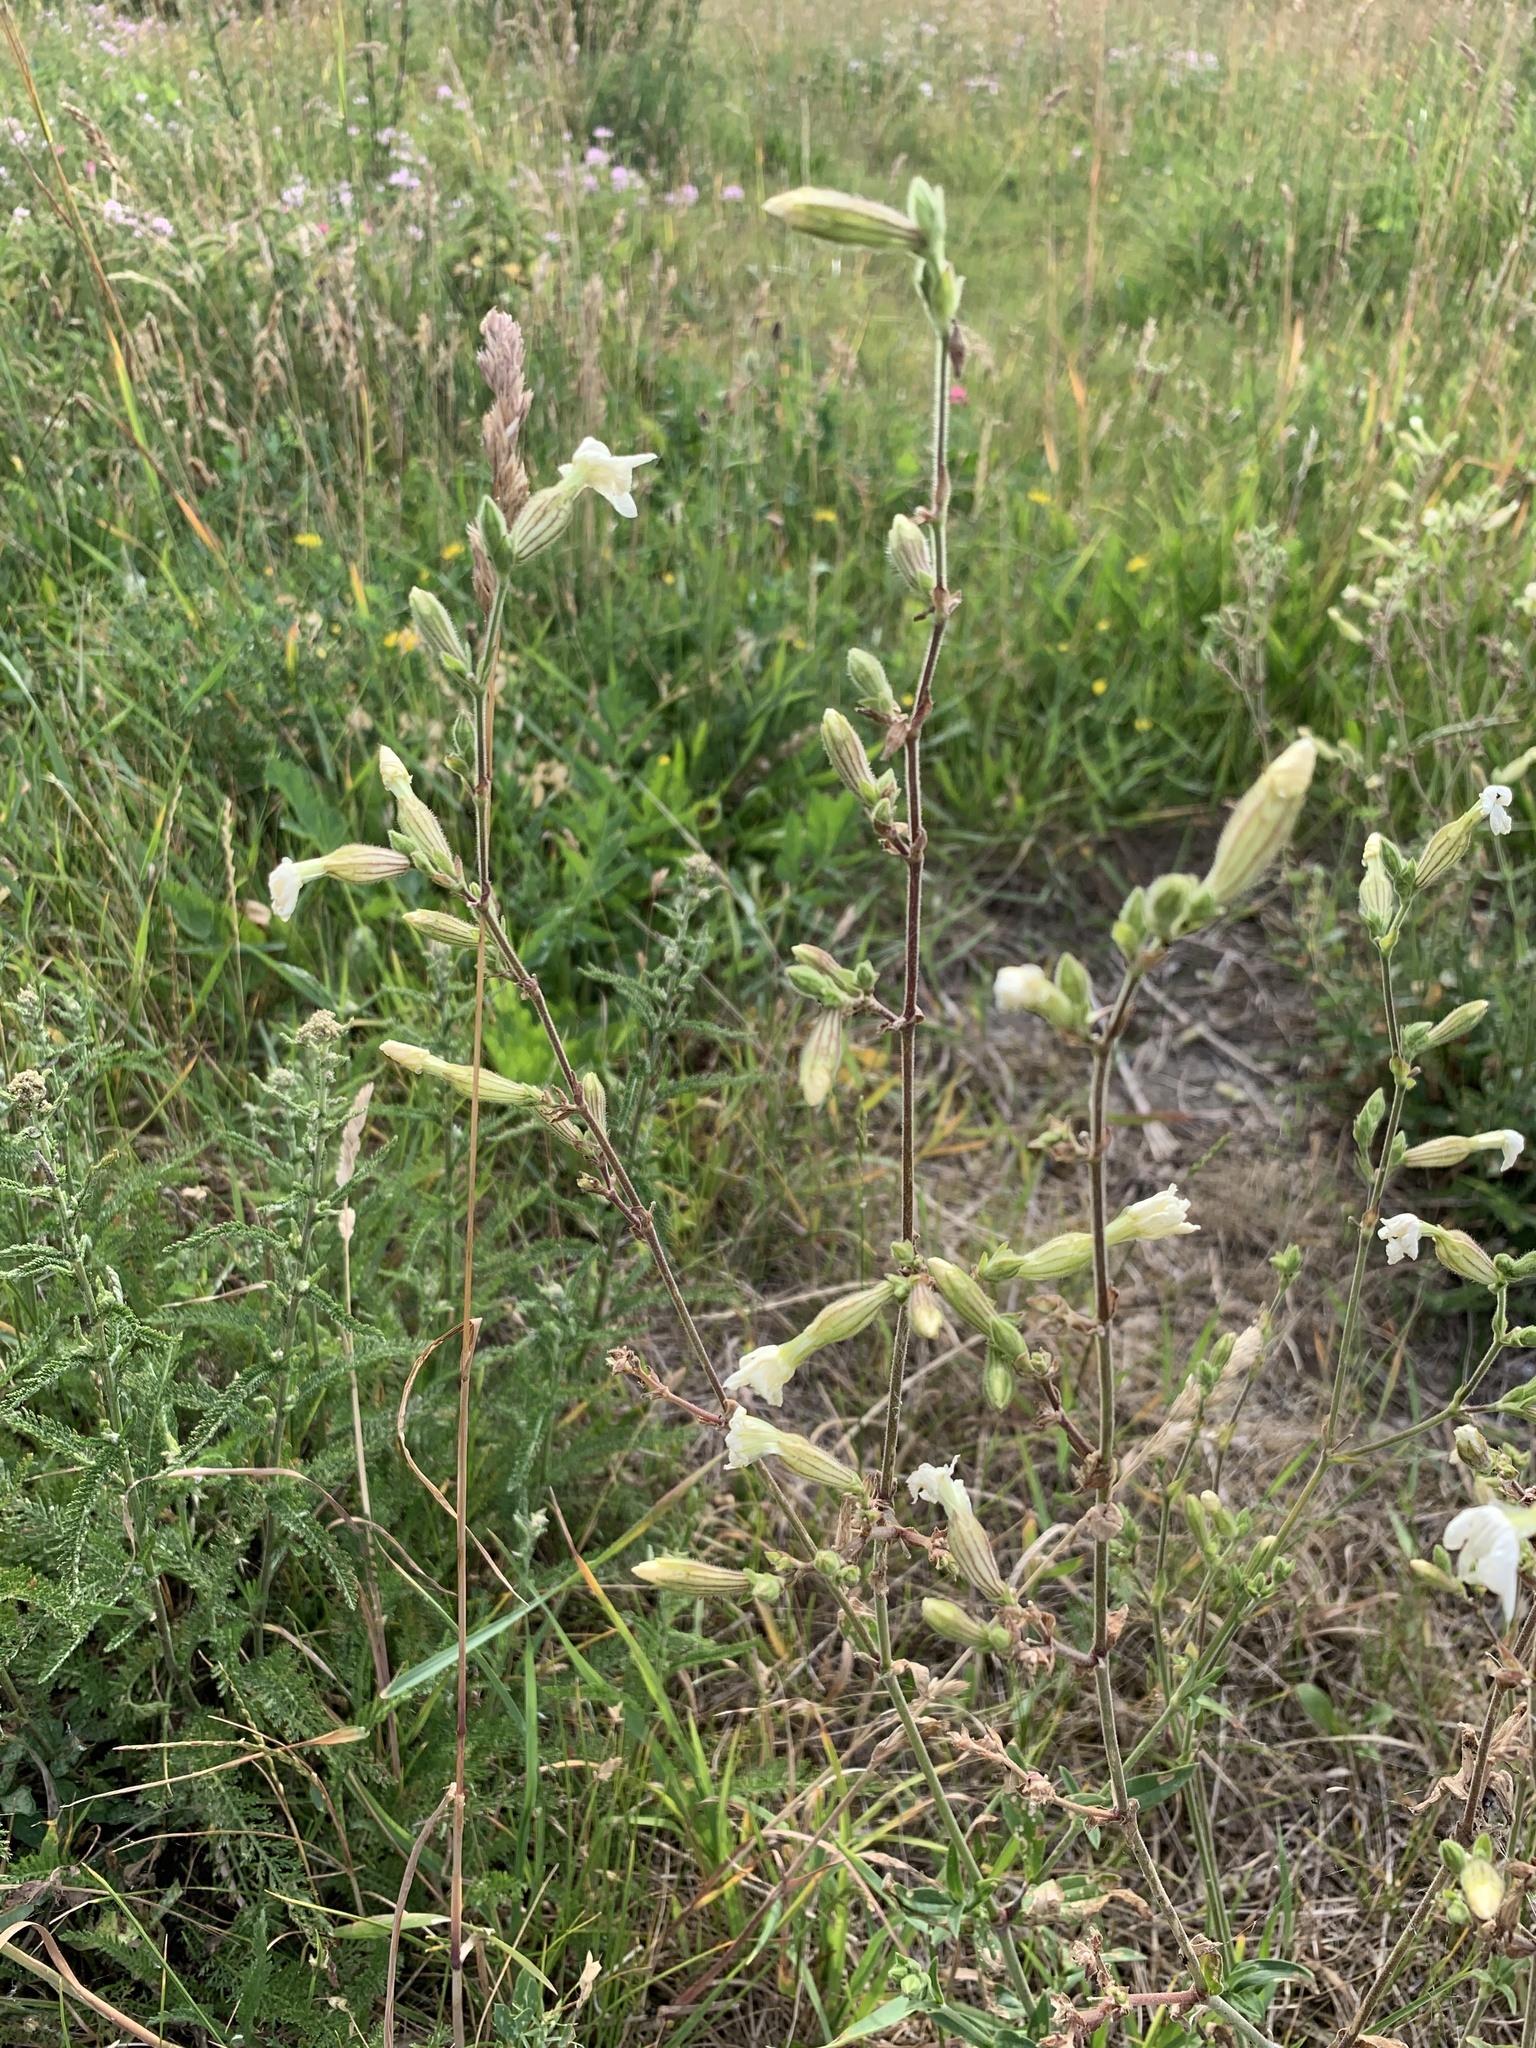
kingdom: Plantae
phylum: Tracheophyta
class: Magnoliopsida
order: Caryophyllales
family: Caryophyllaceae
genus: Silene
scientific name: Silene latifolia
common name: White campion
